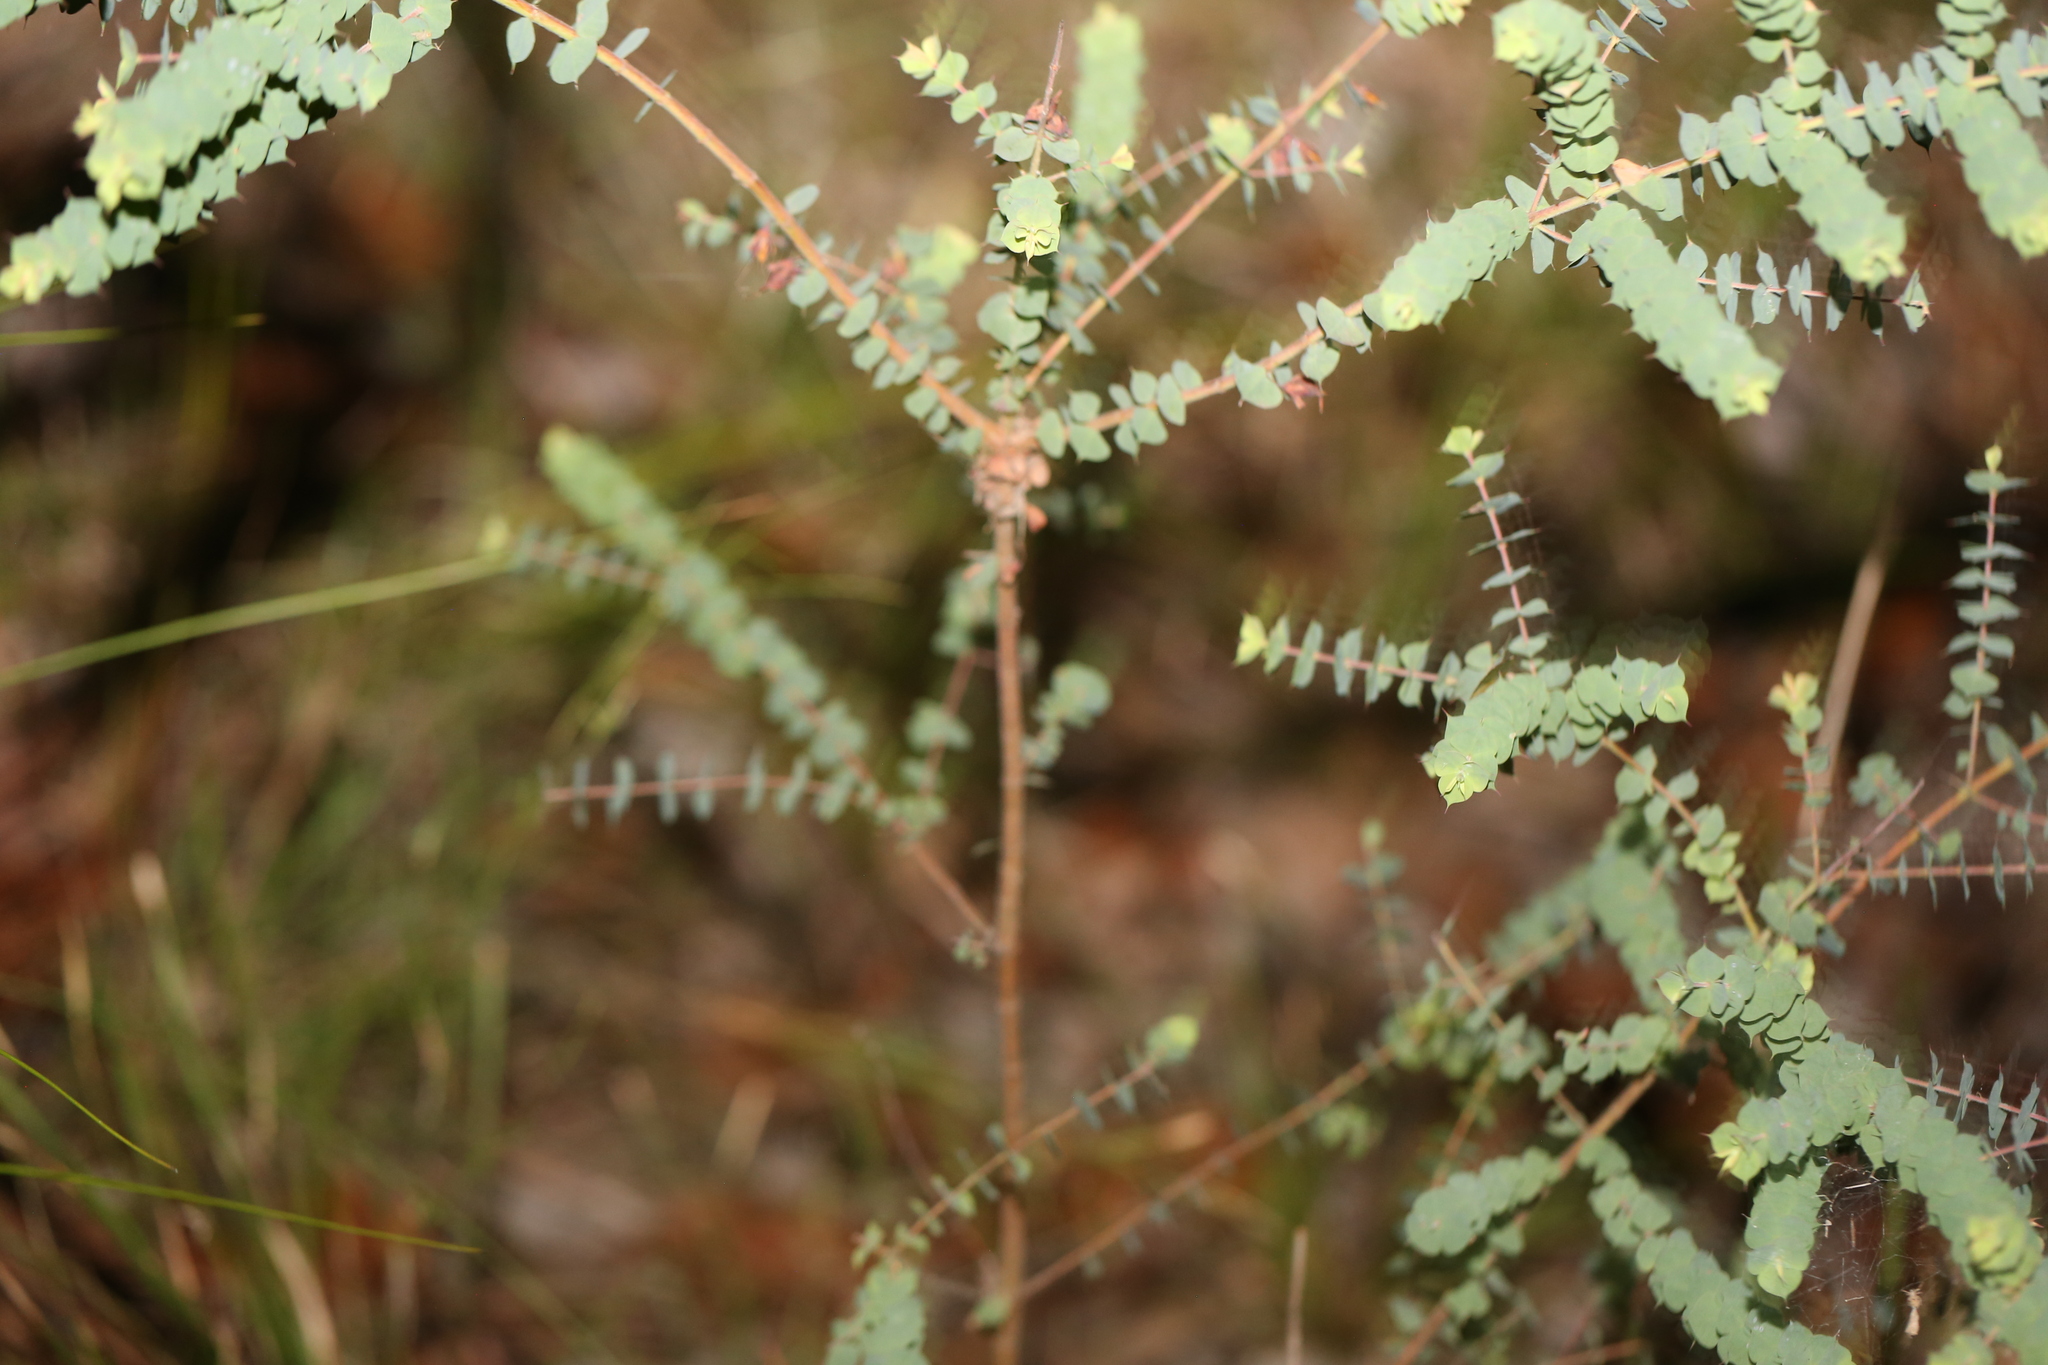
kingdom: Plantae
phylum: Tracheophyta
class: Magnoliopsida
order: Fabales
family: Fabaceae
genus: Pultenaea
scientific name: Pultenaea spinosa
